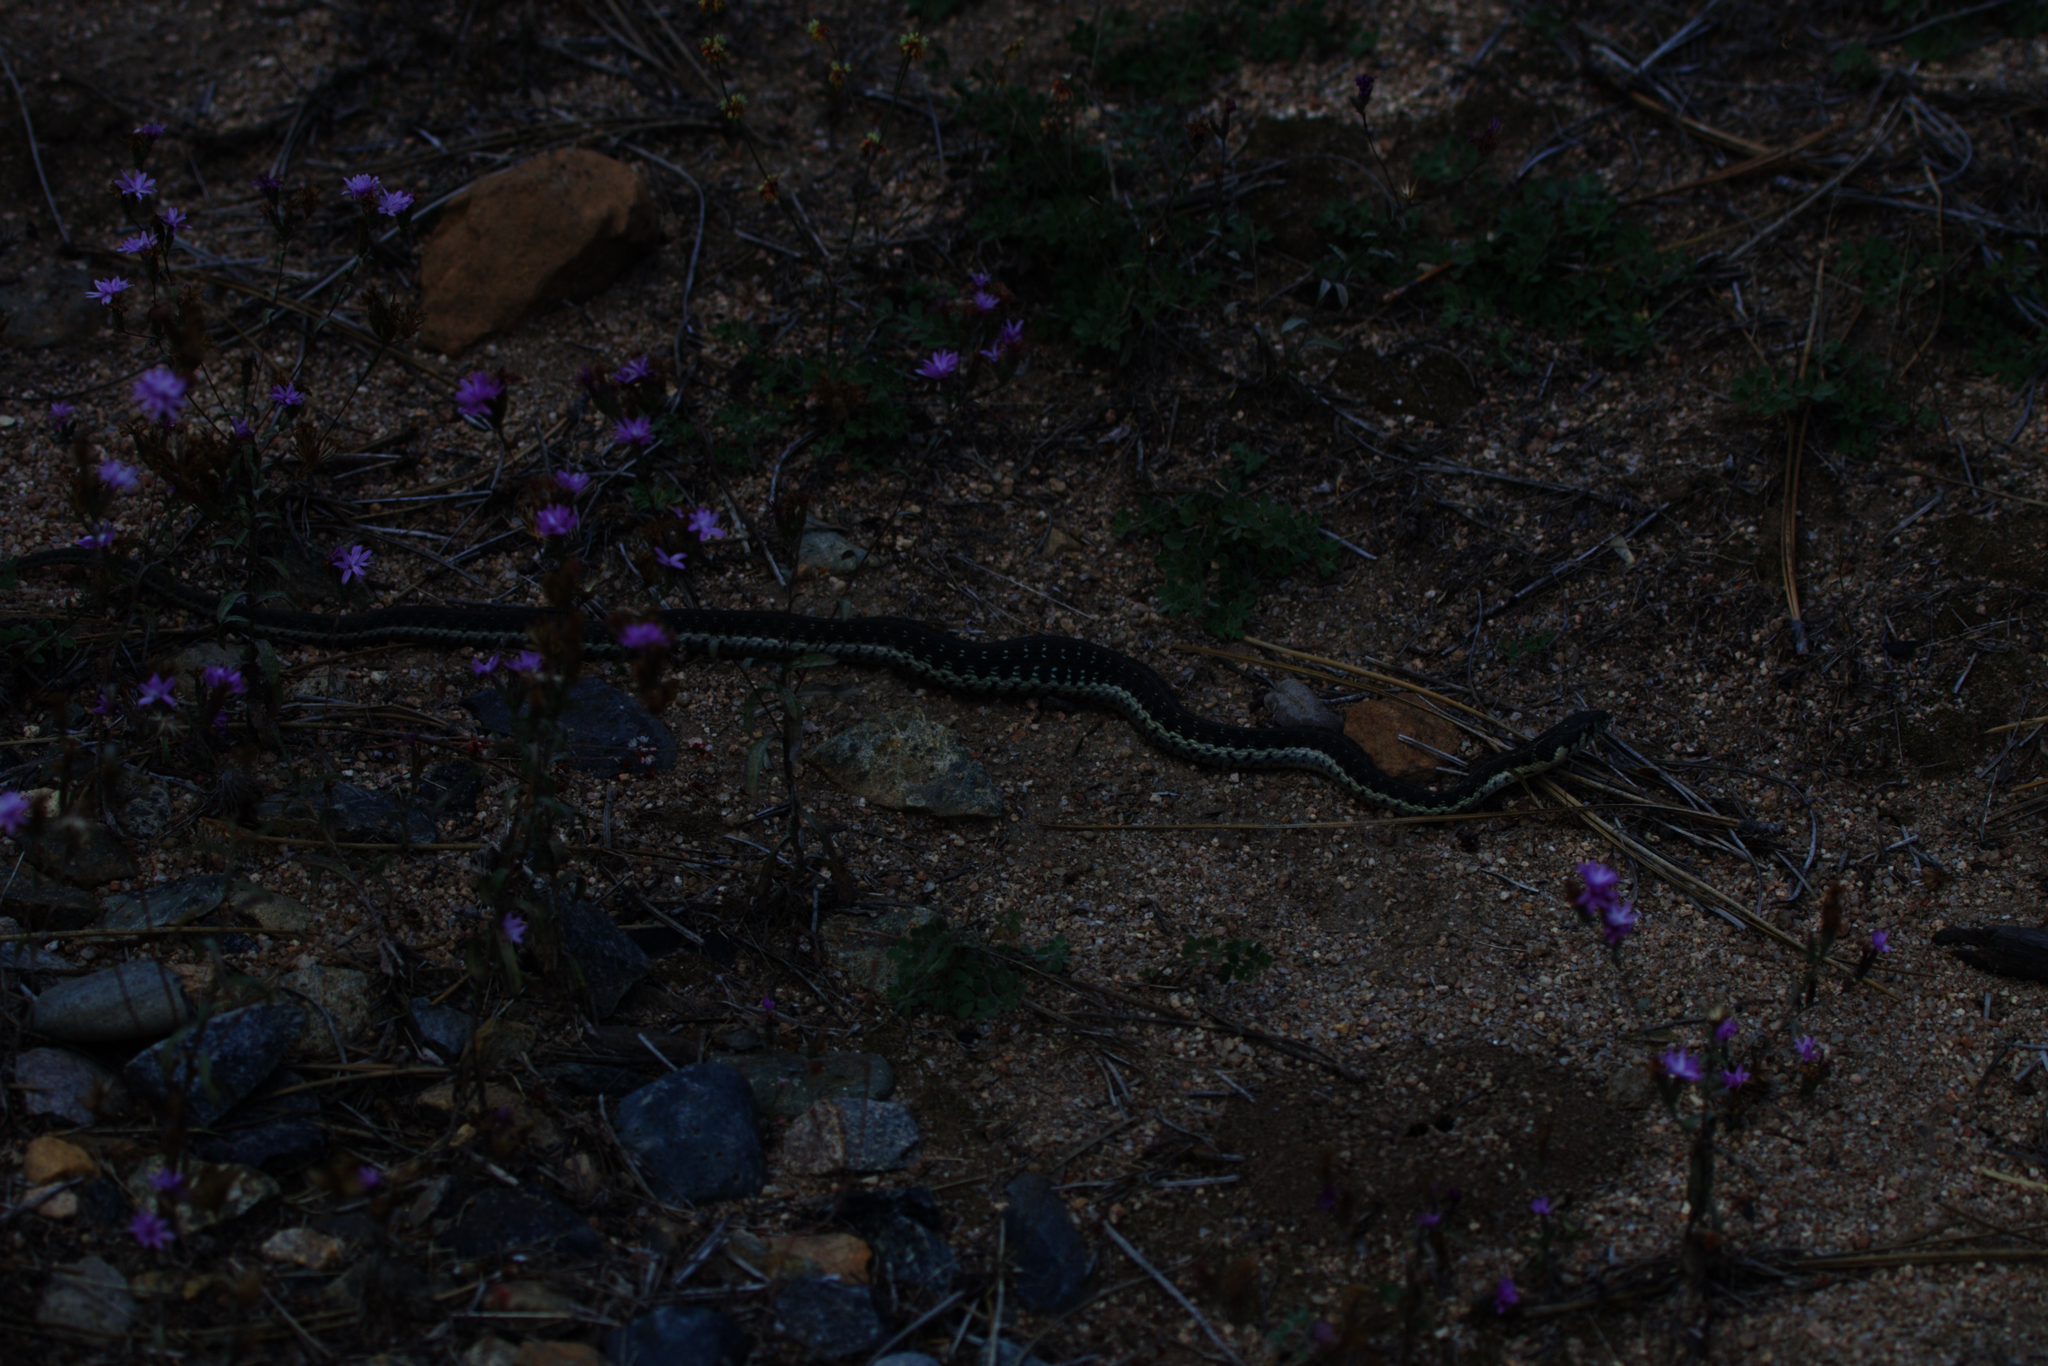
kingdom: Animalia
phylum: Chordata
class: Squamata
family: Colubridae
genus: Thamnophis
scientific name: Thamnophis couchii
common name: Western aquatic garter snake
